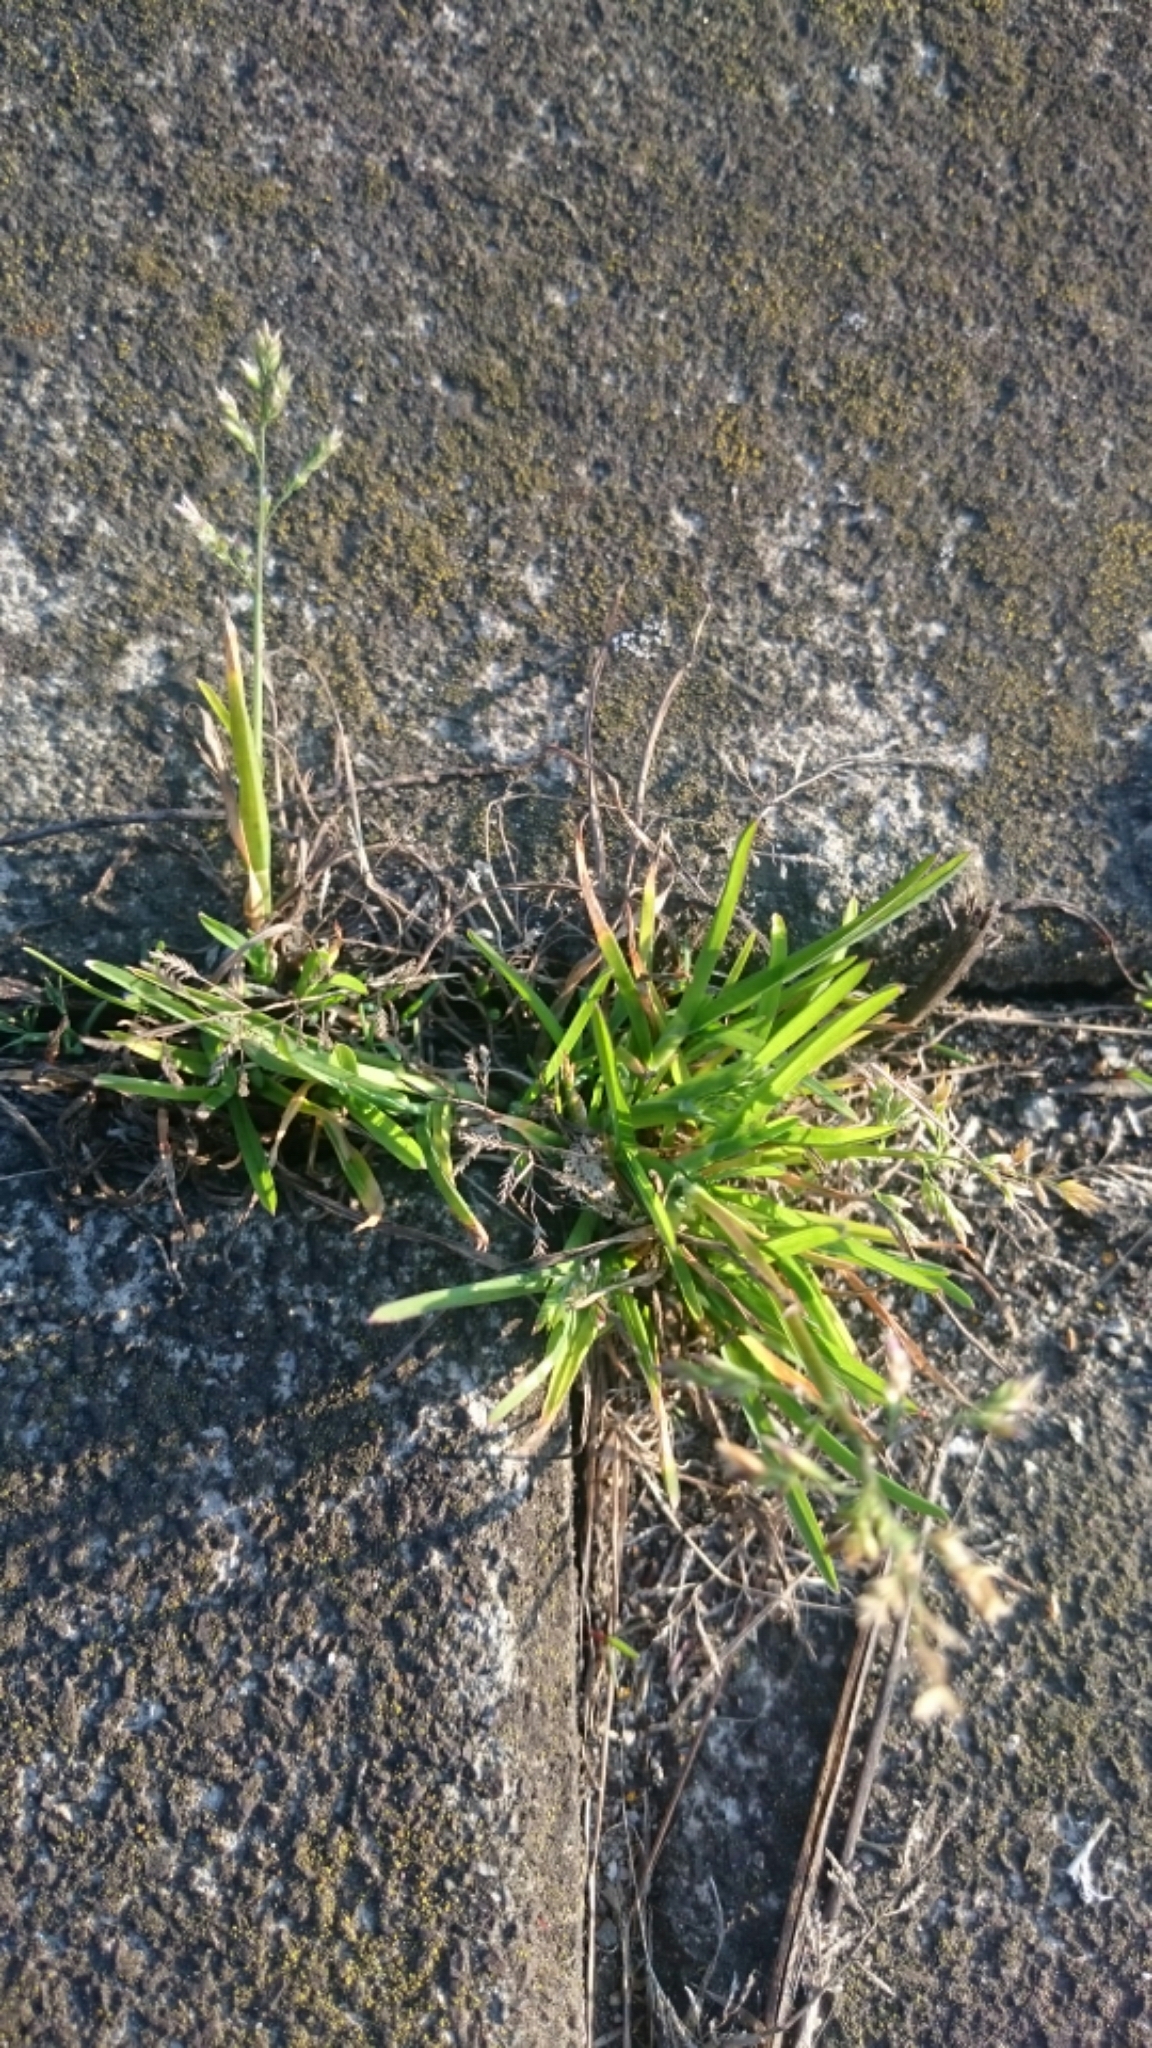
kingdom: Plantae
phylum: Tracheophyta
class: Liliopsida
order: Poales
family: Poaceae
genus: Poa
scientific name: Poa annua
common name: Annual bluegrass
